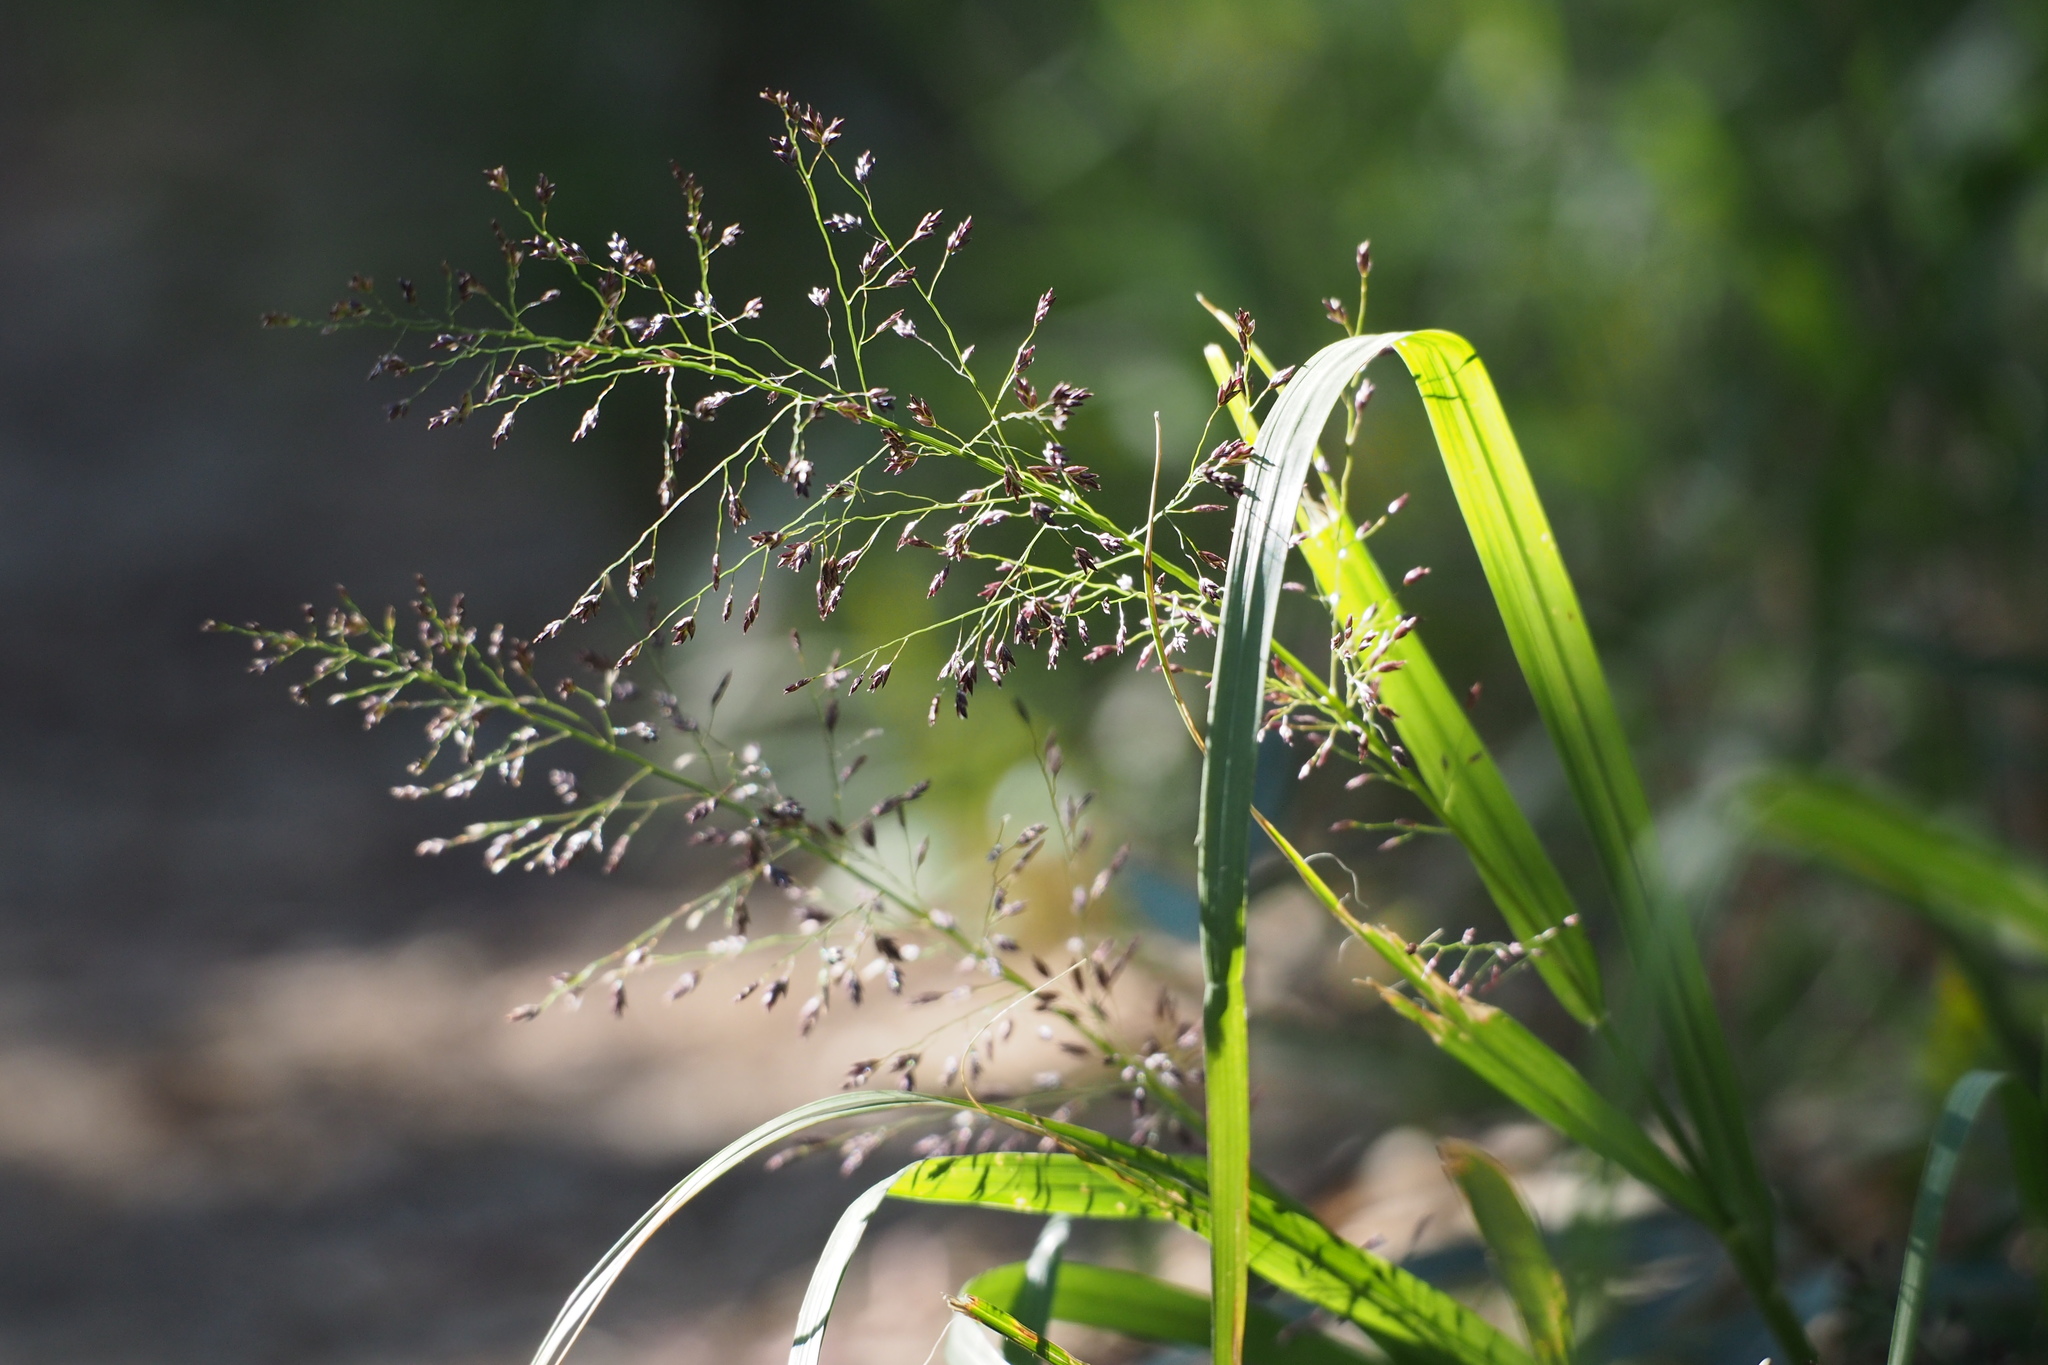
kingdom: Plantae
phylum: Tracheophyta
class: Liliopsida
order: Poales
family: Poaceae
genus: Eragrostis
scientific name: Eragrostis ferruginea
